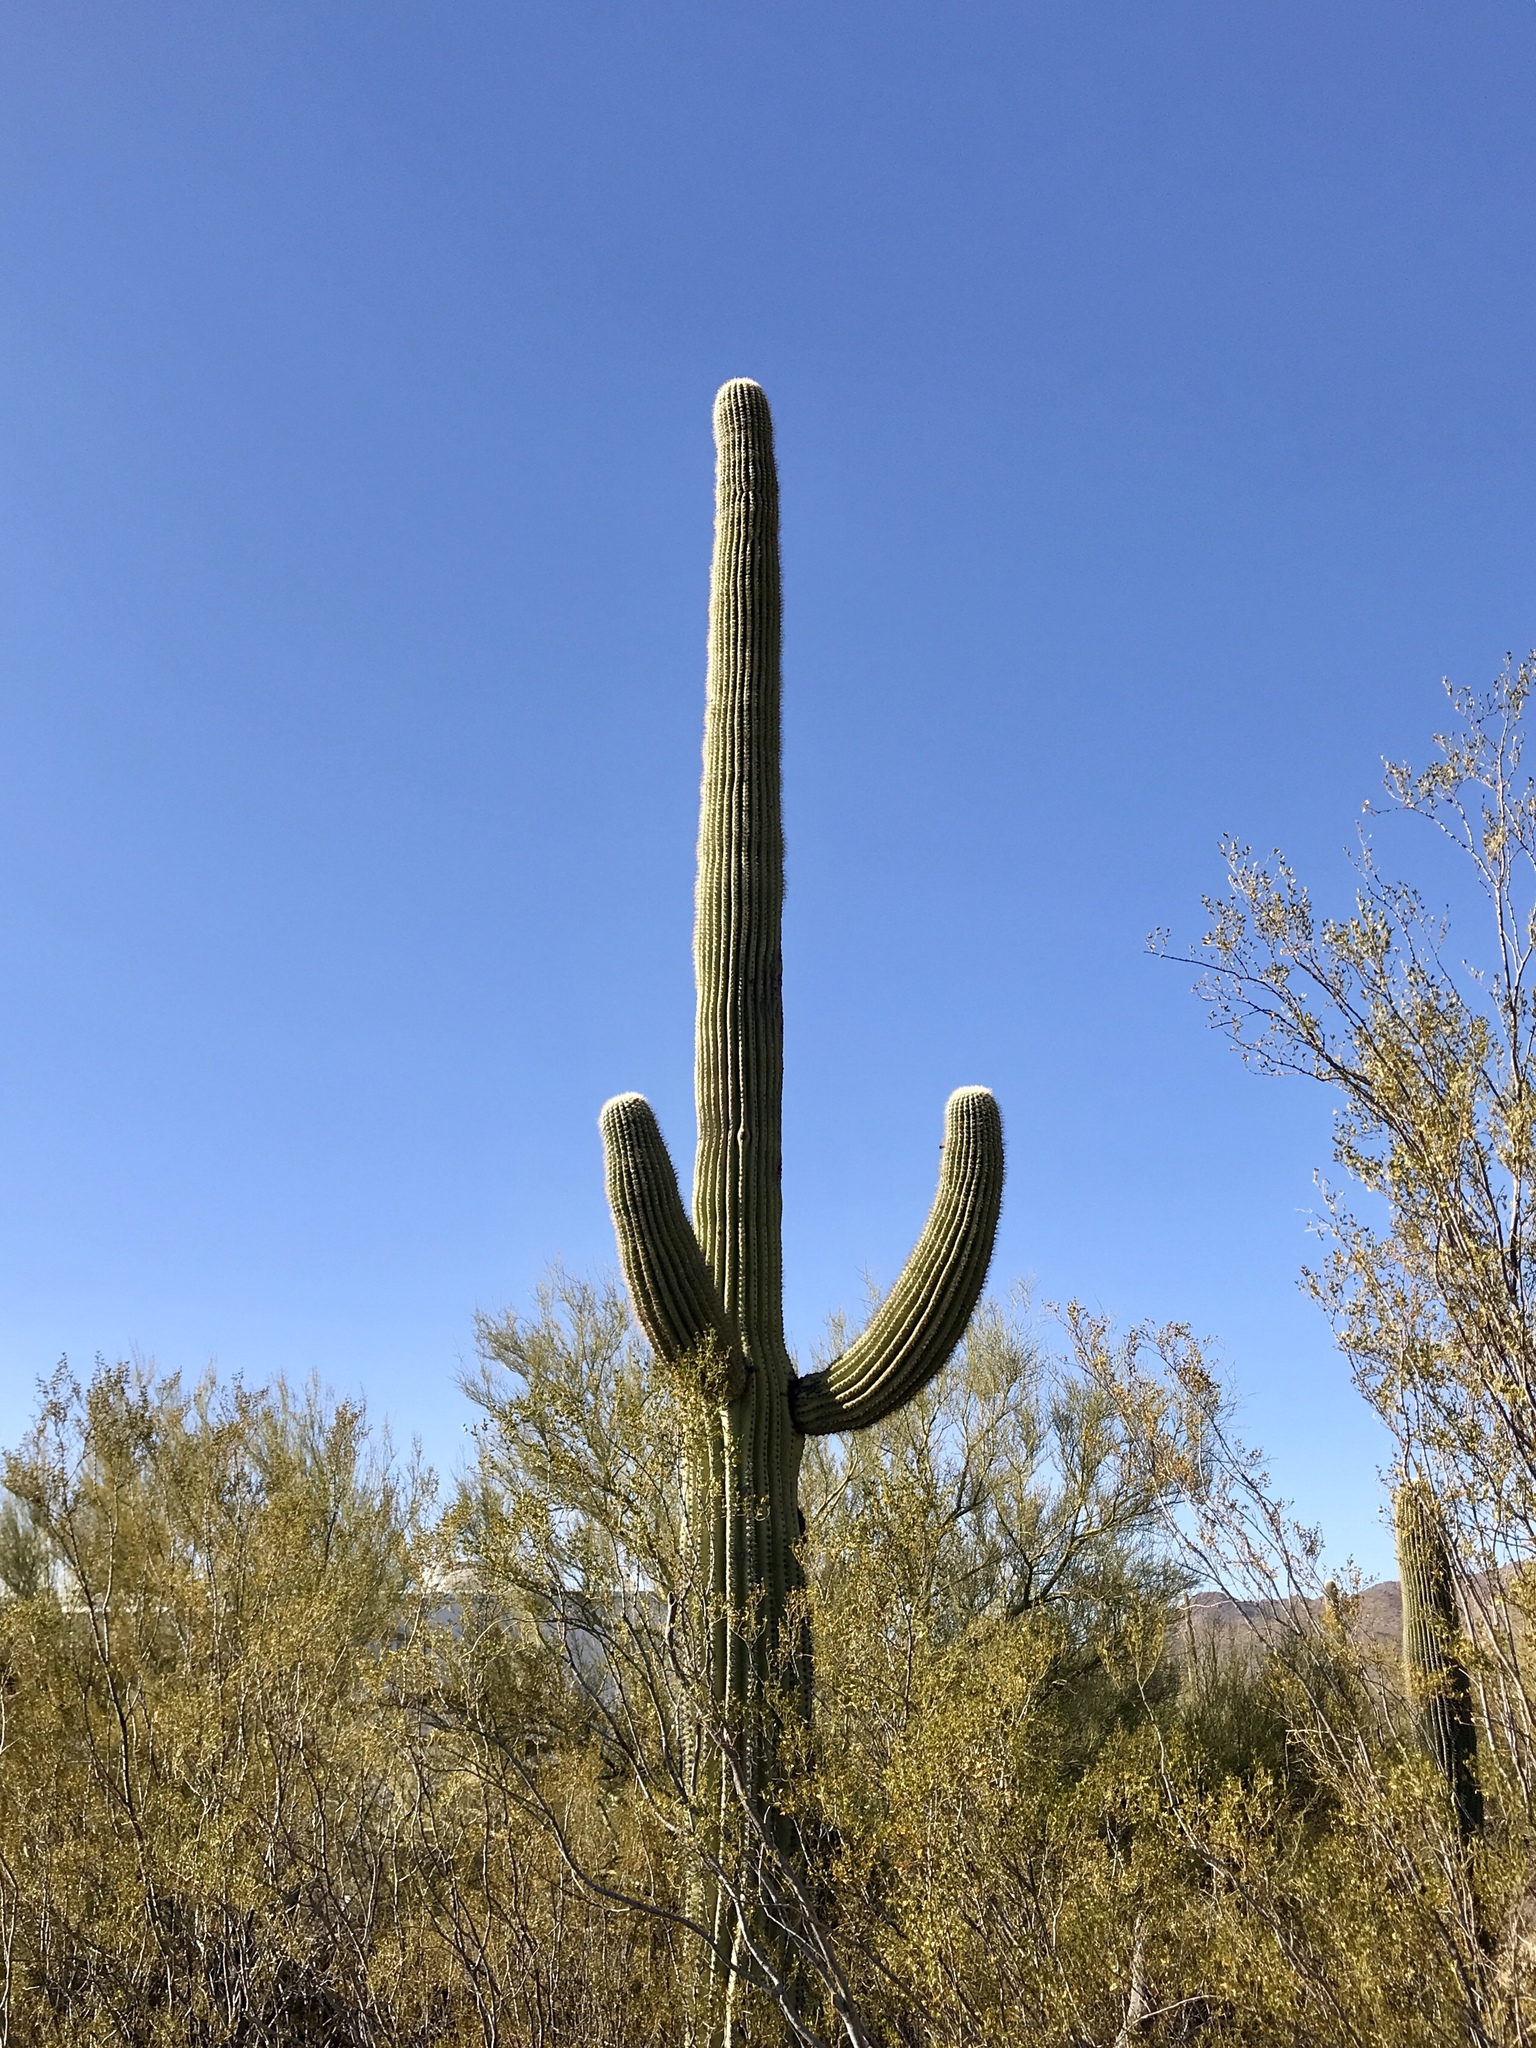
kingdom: Plantae
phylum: Tracheophyta
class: Magnoliopsida
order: Caryophyllales
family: Cactaceae
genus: Carnegiea
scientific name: Carnegiea gigantea
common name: Saguaro
